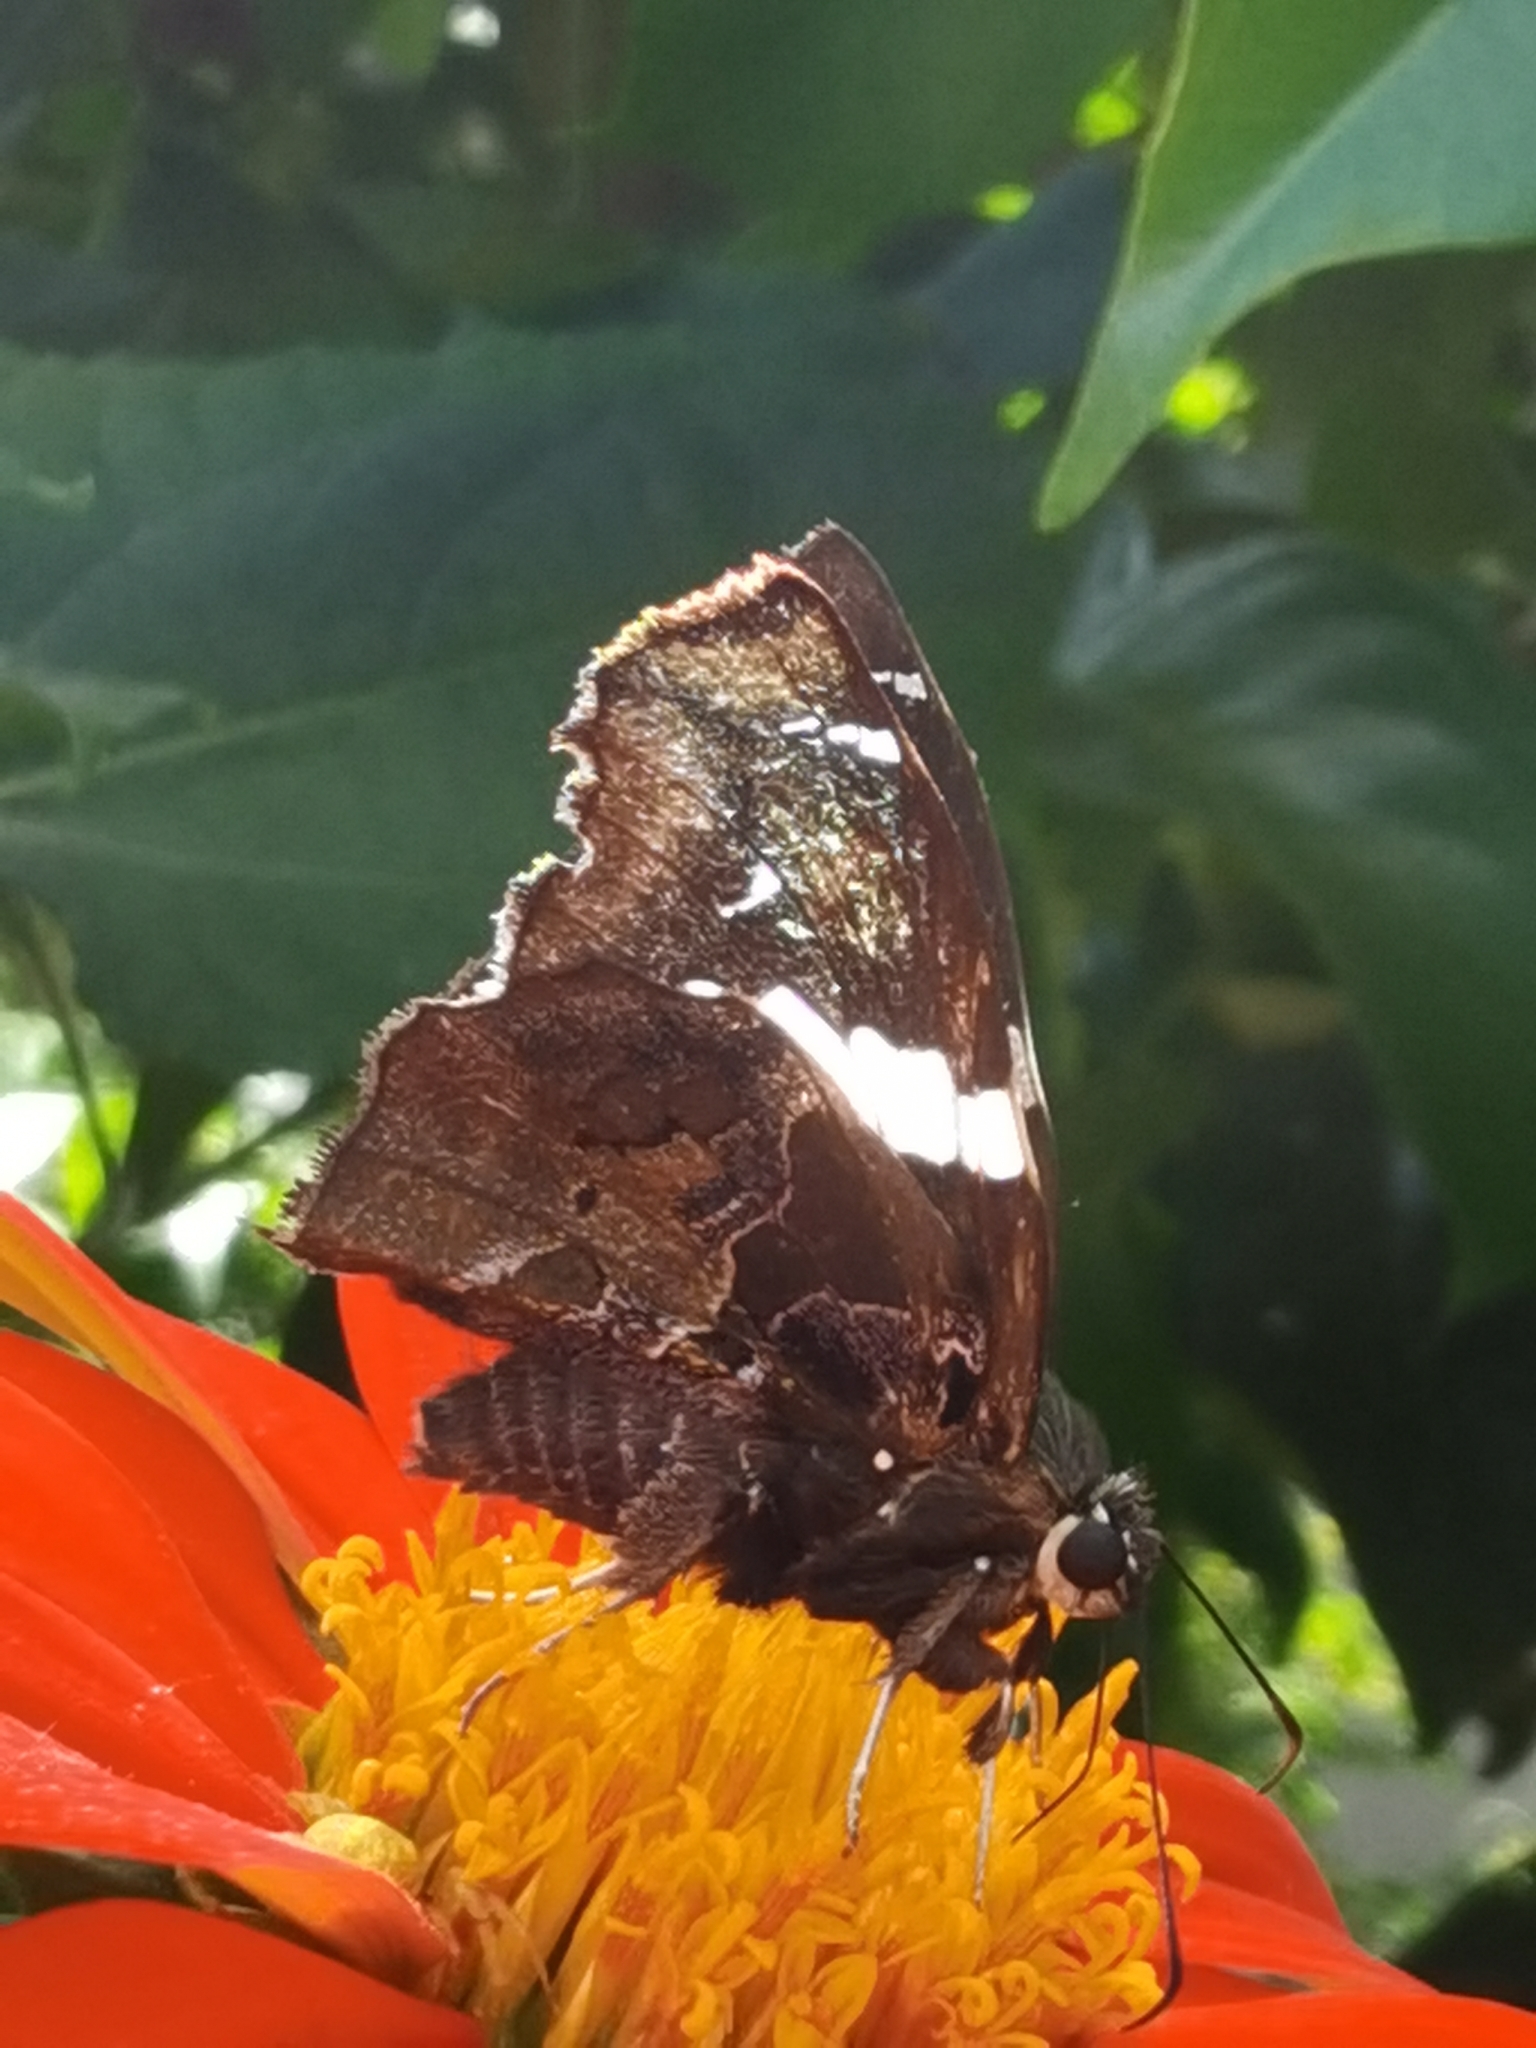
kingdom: Animalia
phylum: Arthropoda
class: Insecta
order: Lepidoptera
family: Hesperiidae
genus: Spathilepia
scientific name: Spathilepia clonius
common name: Falcate skipper
